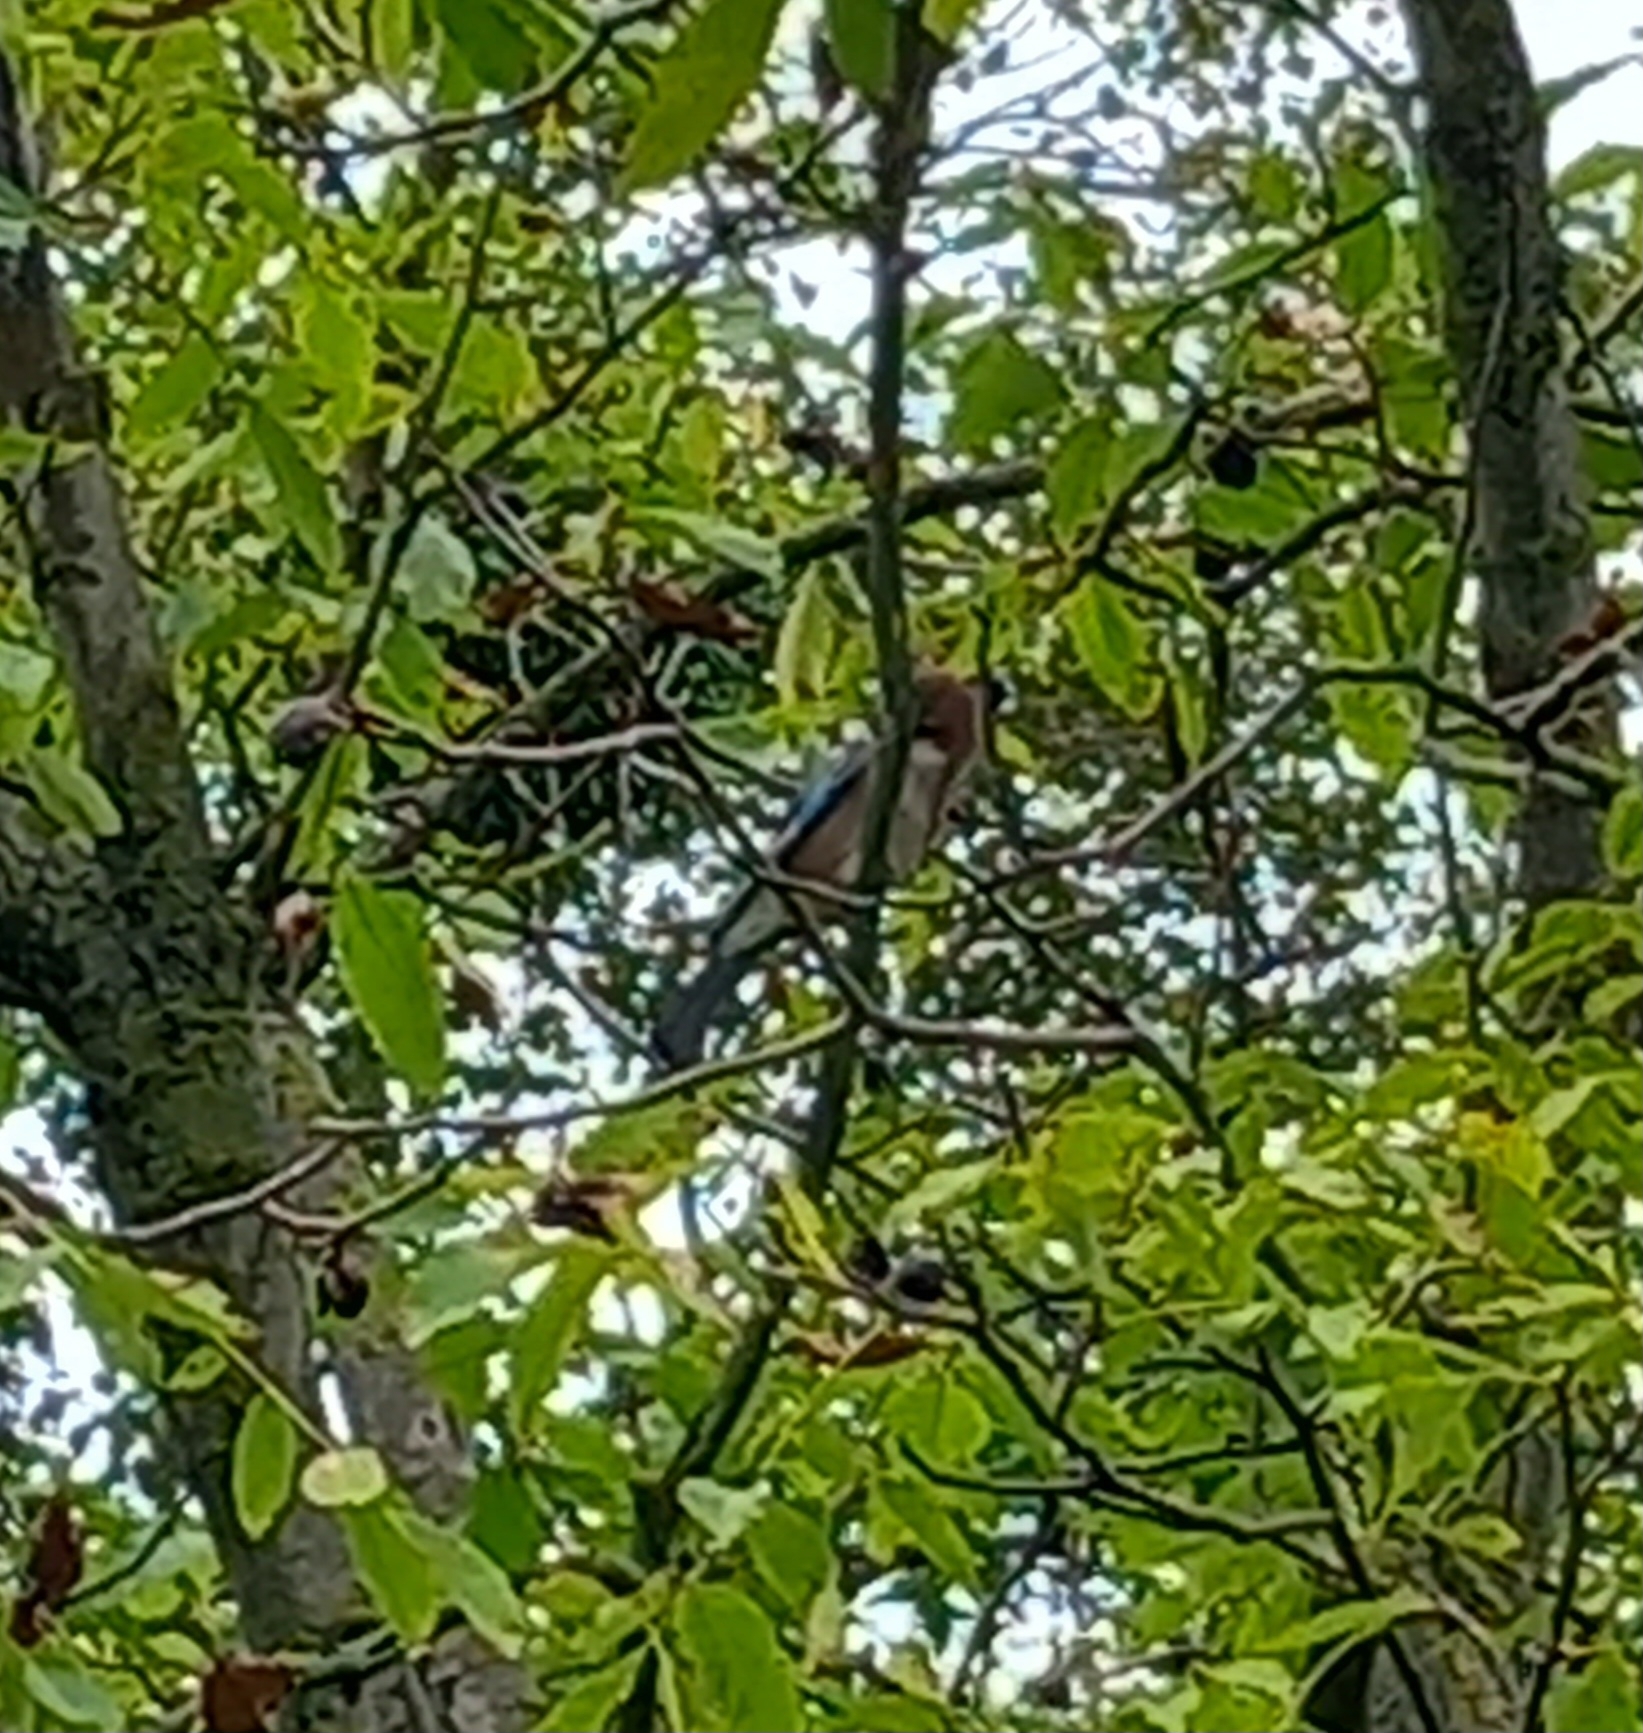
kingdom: Animalia
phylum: Chordata
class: Aves
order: Passeriformes
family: Corvidae
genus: Garrulus
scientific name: Garrulus glandarius
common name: Eurasian jay
